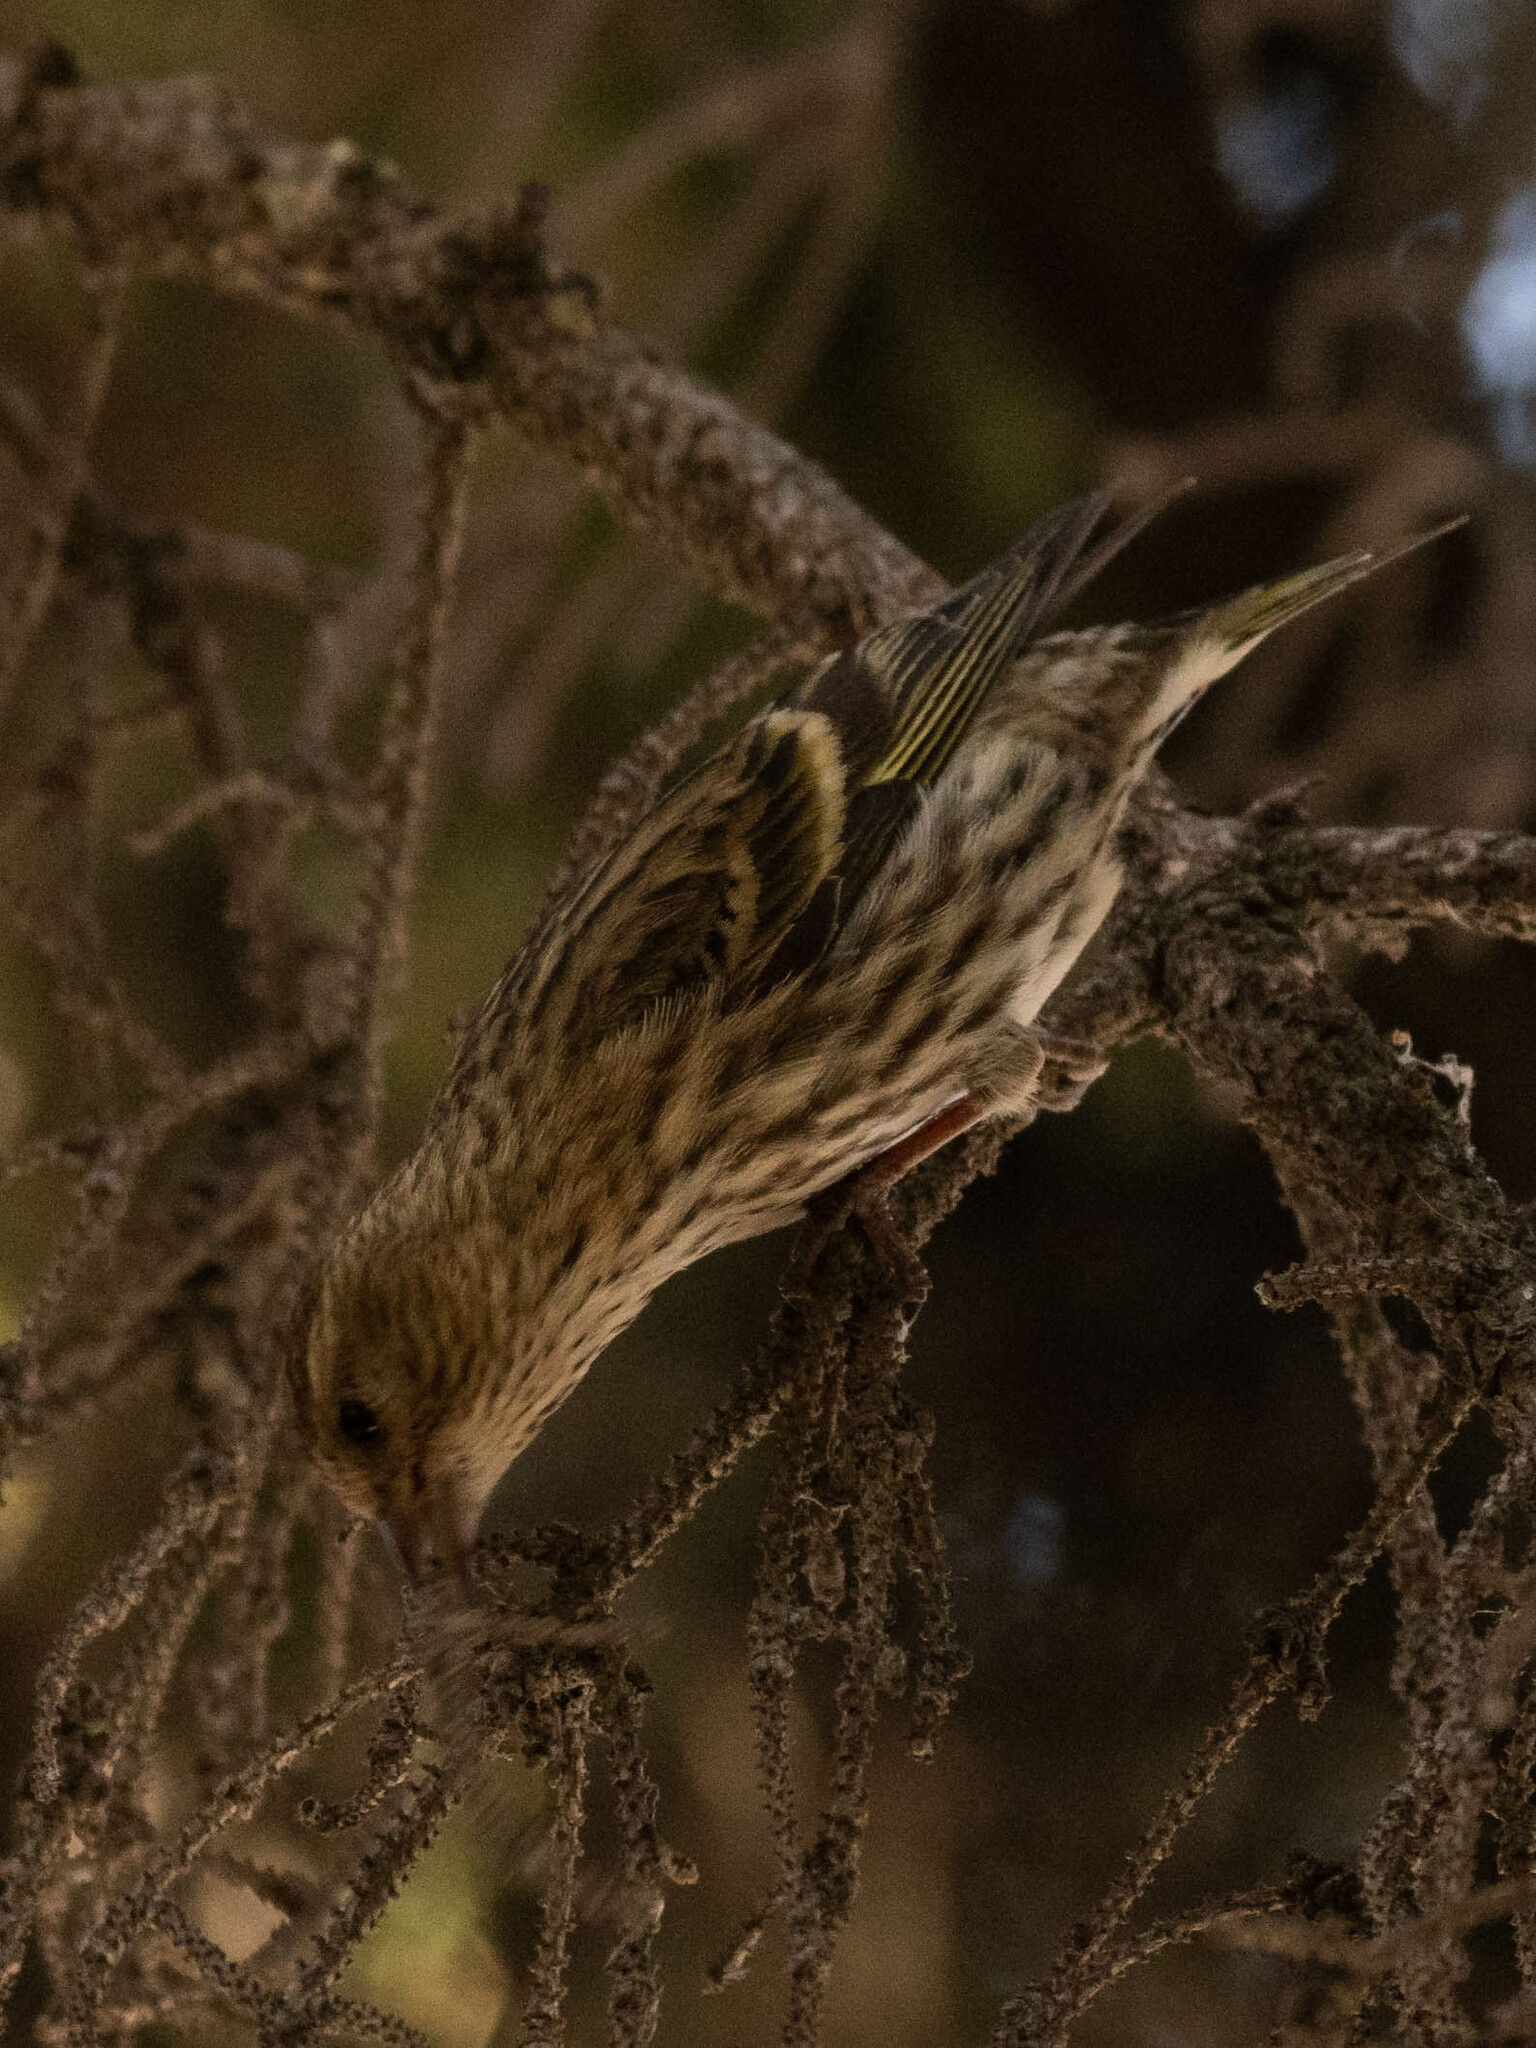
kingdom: Animalia
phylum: Chordata
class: Aves
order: Passeriformes
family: Fringillidae
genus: Spinus
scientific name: Spinus pinus
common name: Pine siskin
